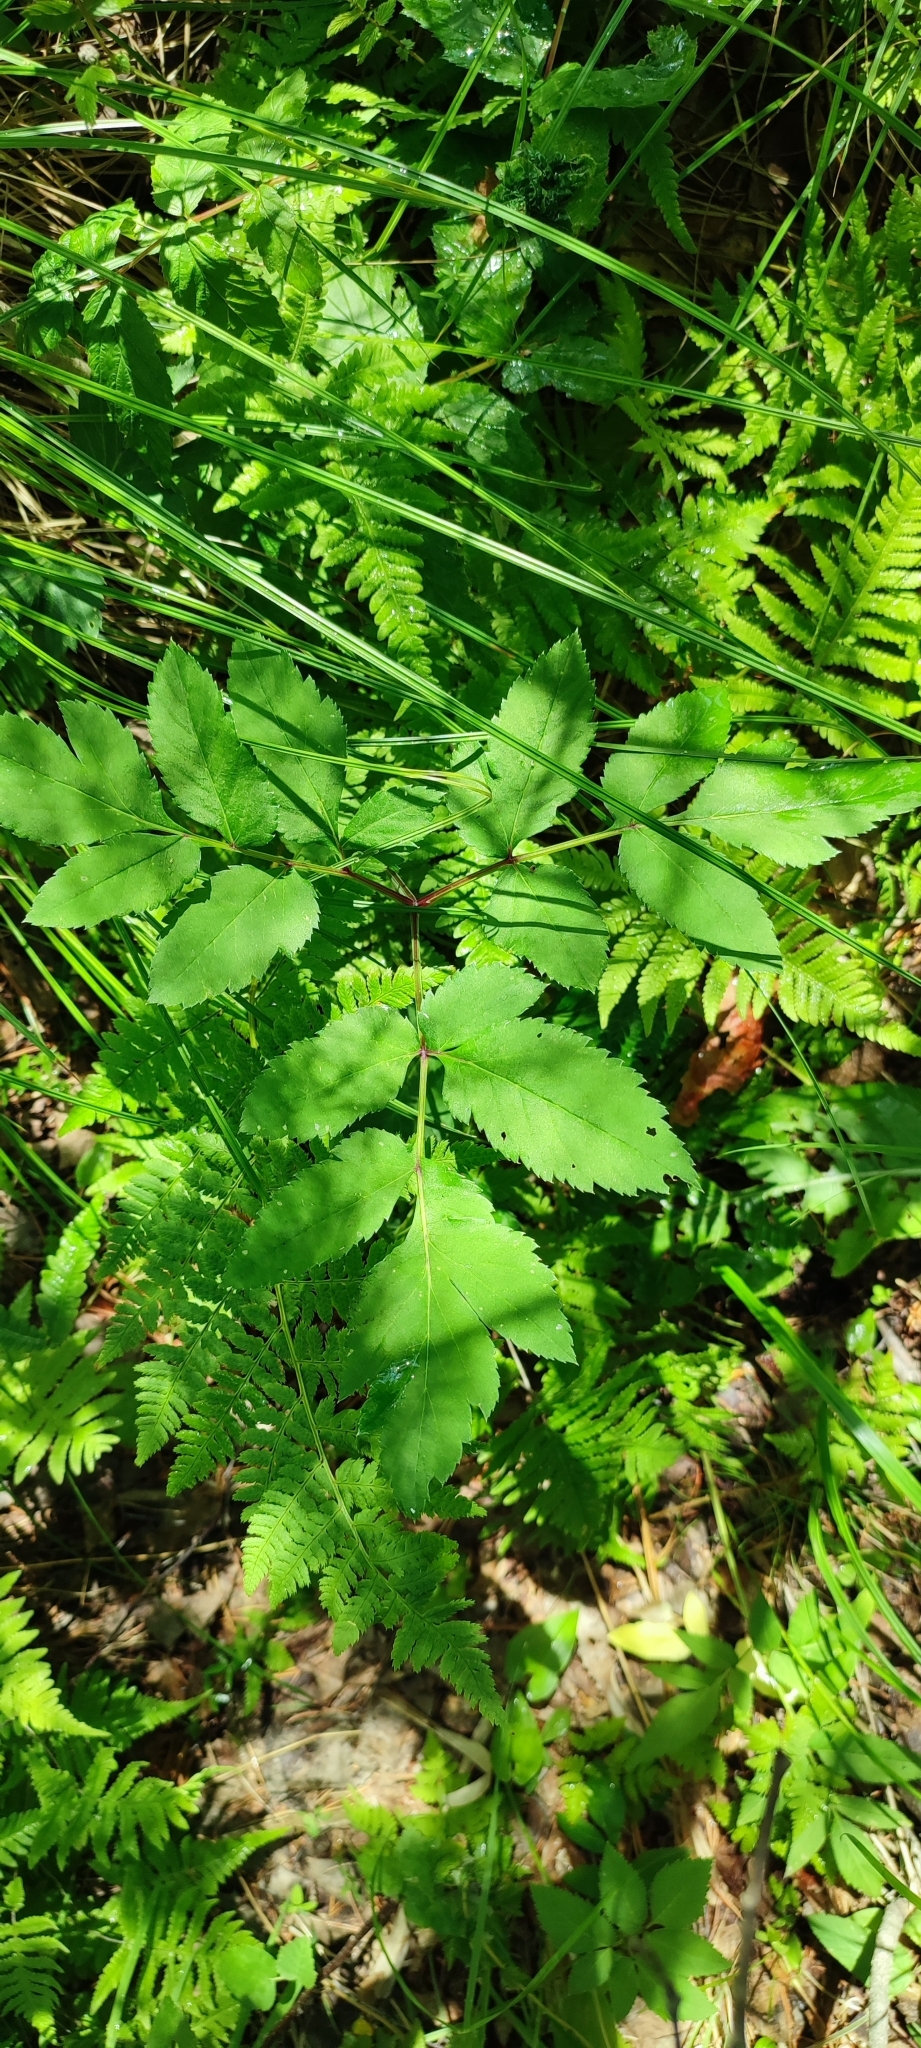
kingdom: Plantae
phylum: Tracheophyta
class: Magnoliopsida
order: Apiales
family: Apiaceae
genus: Angelica
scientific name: Angelica sylvestris
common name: Wild angelica
